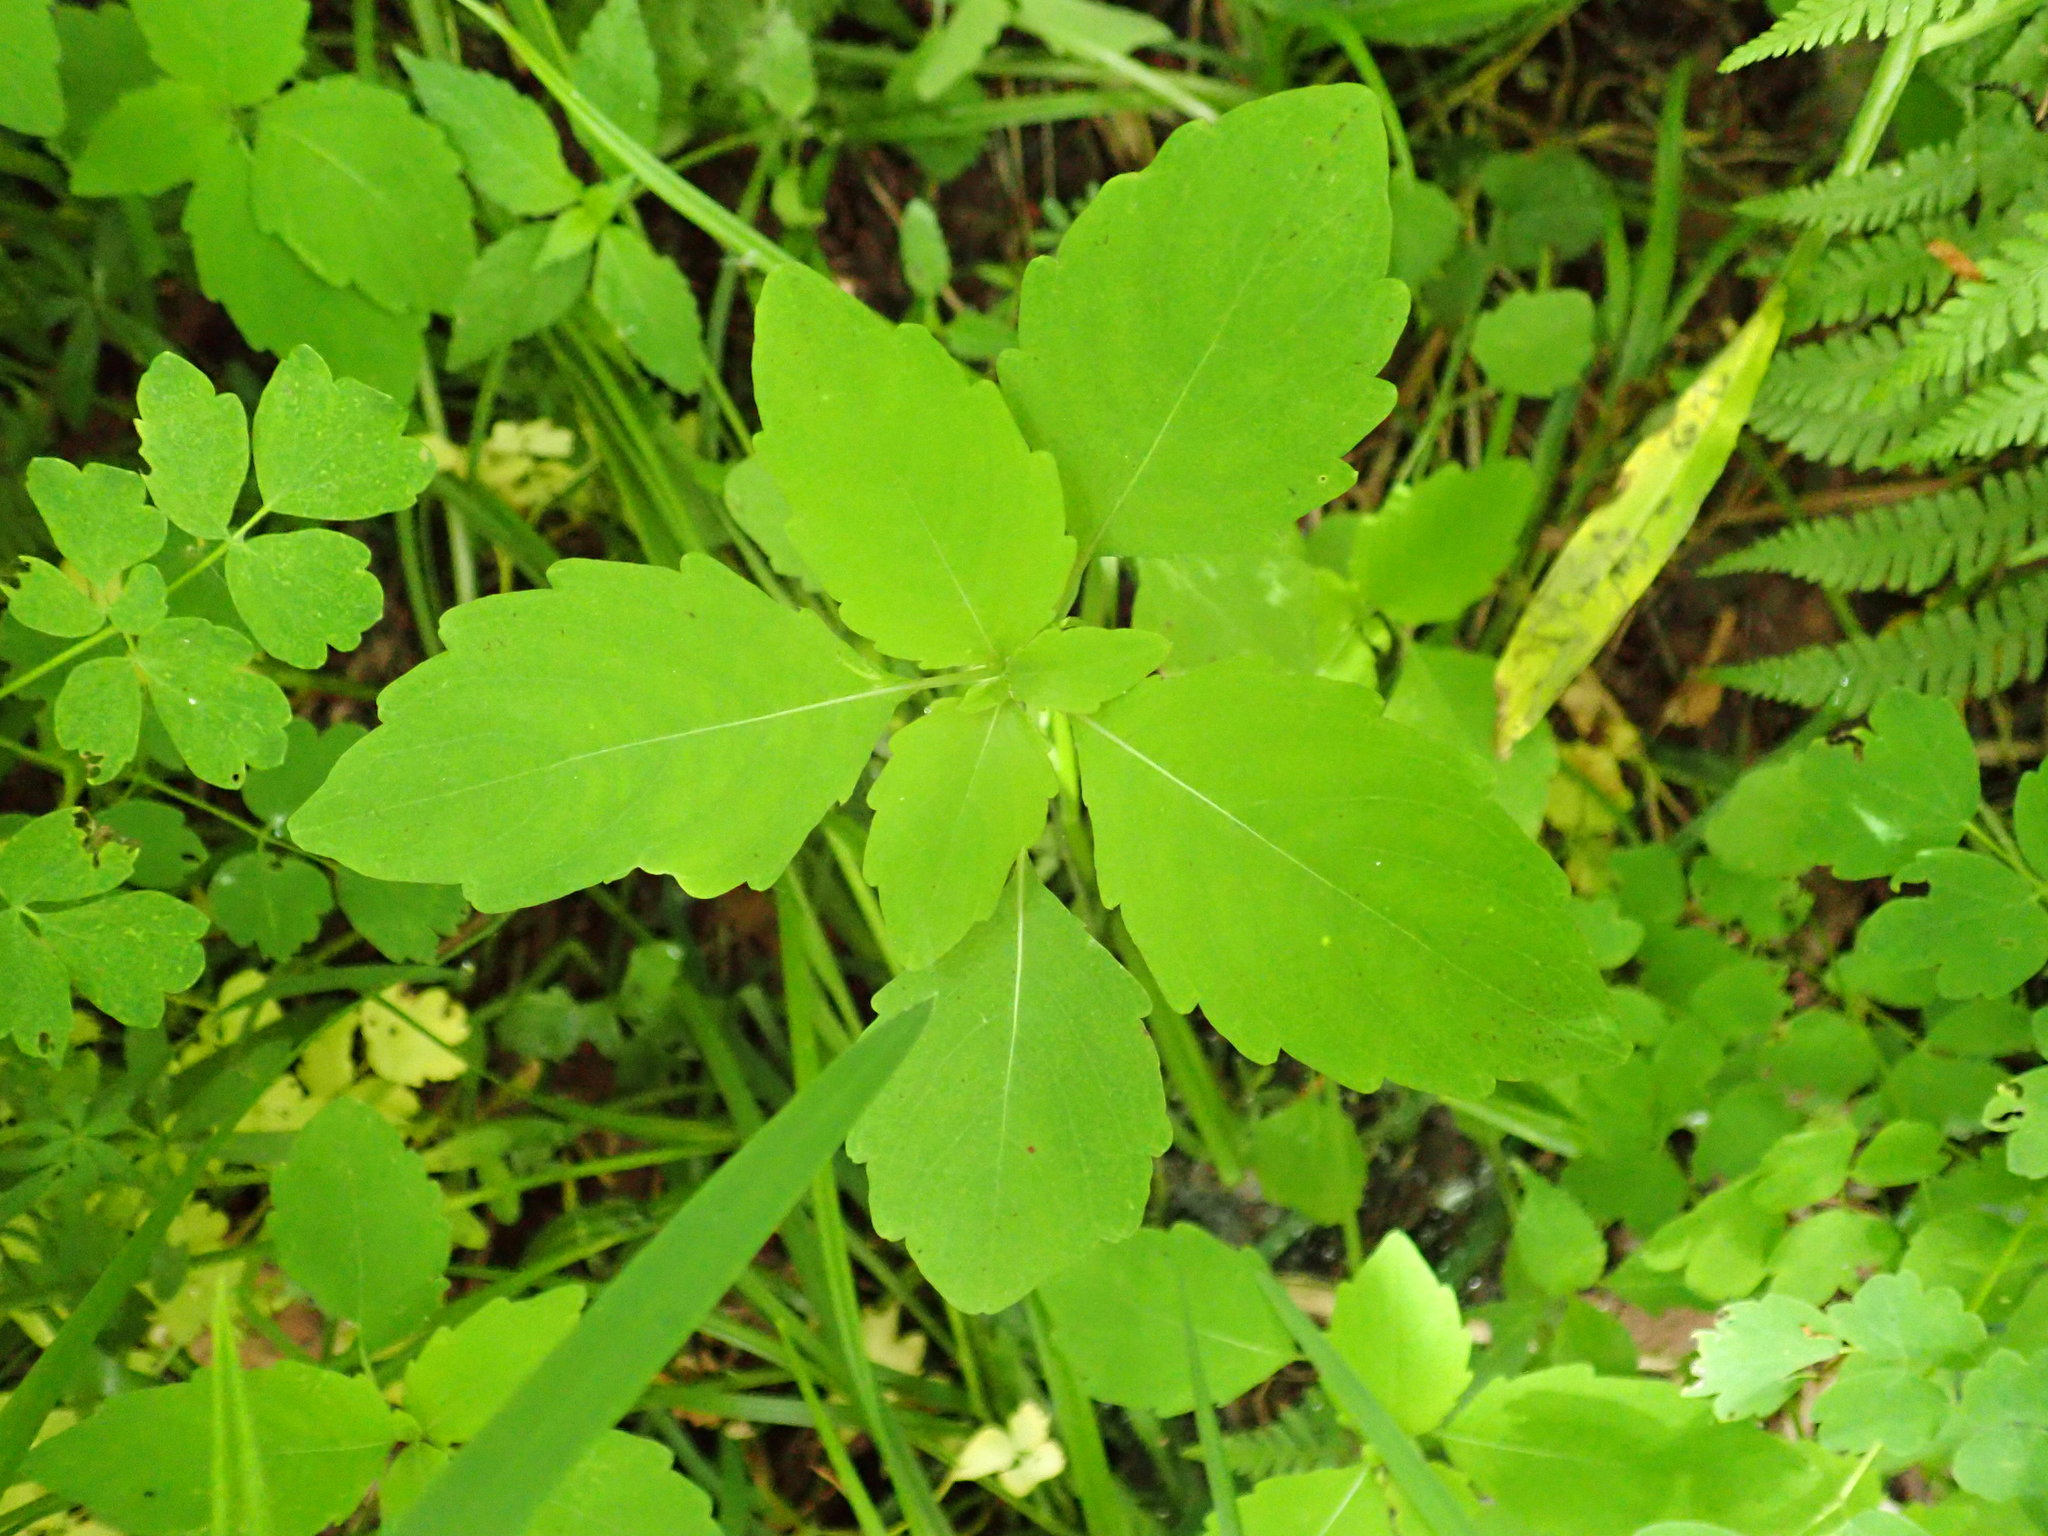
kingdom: Plantae
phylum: Tracheophyta
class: Magnoliopsida
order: Ericales
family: Balsaminaceae
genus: Impatiens
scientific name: Impatiens capensis
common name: Orange balsam
